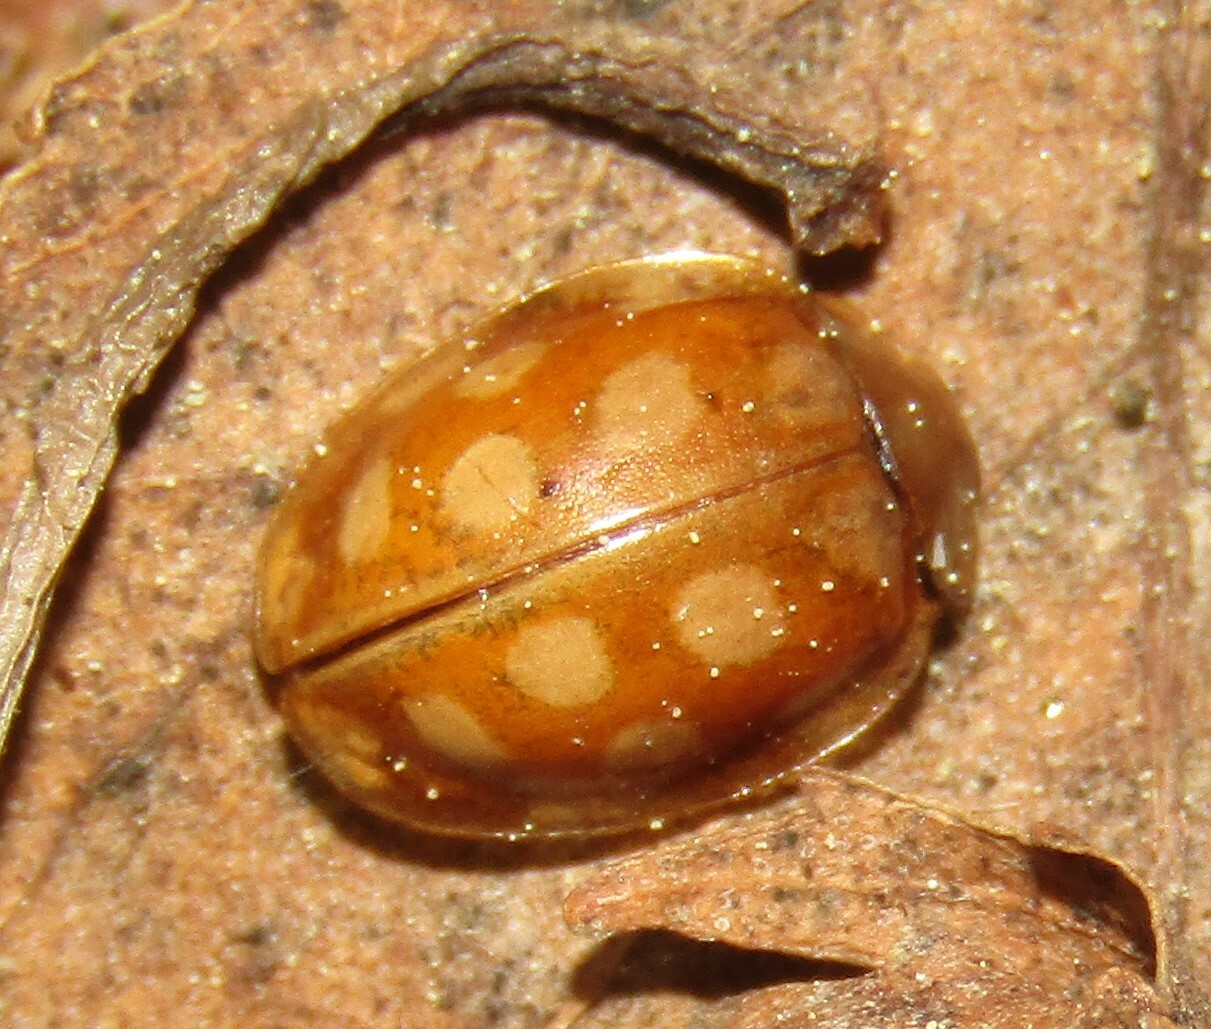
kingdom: Animalia
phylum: Arthropoda
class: Insecta
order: Coleoptera
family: Coccinellidae
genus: Halyzia
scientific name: Halyzia sedecimguttata
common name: Orange ladybird
